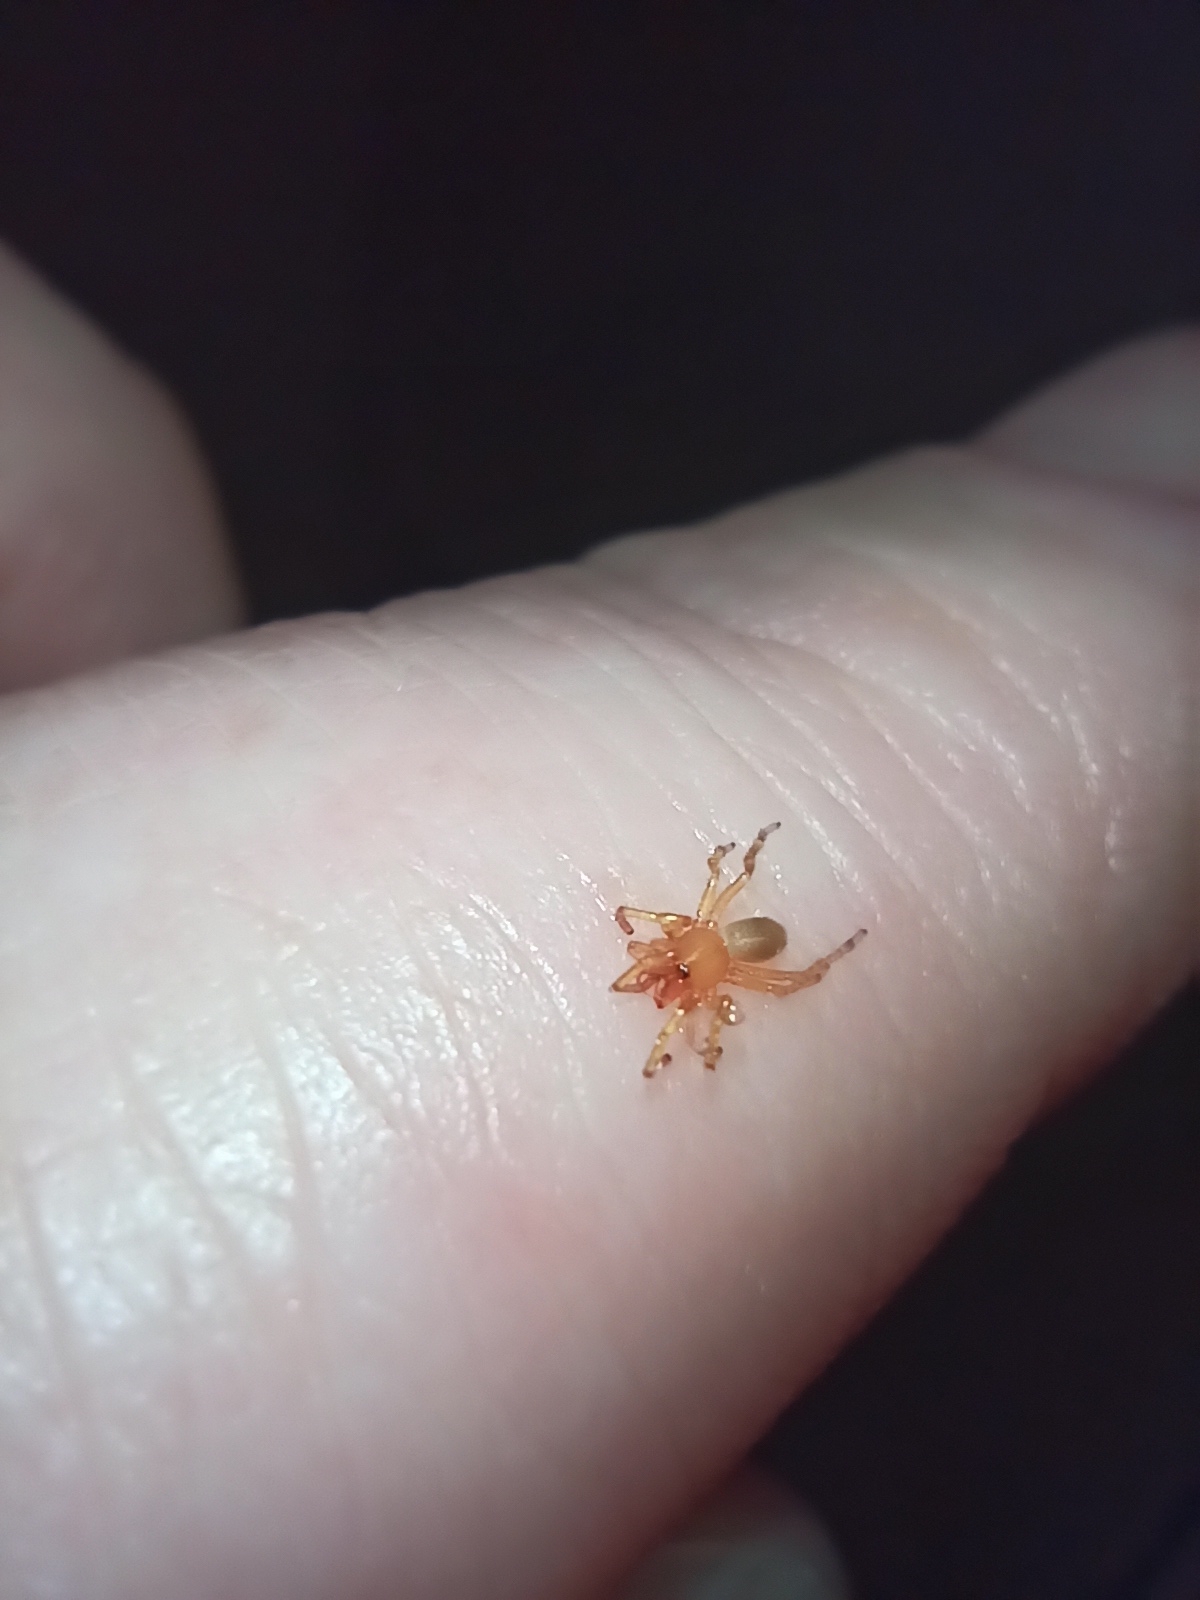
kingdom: Animalia
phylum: Arthropoda
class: Arachnida
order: Araneae
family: Dysderidae
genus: Dysdera
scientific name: Dysdera crocata
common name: Woodlouse spider
